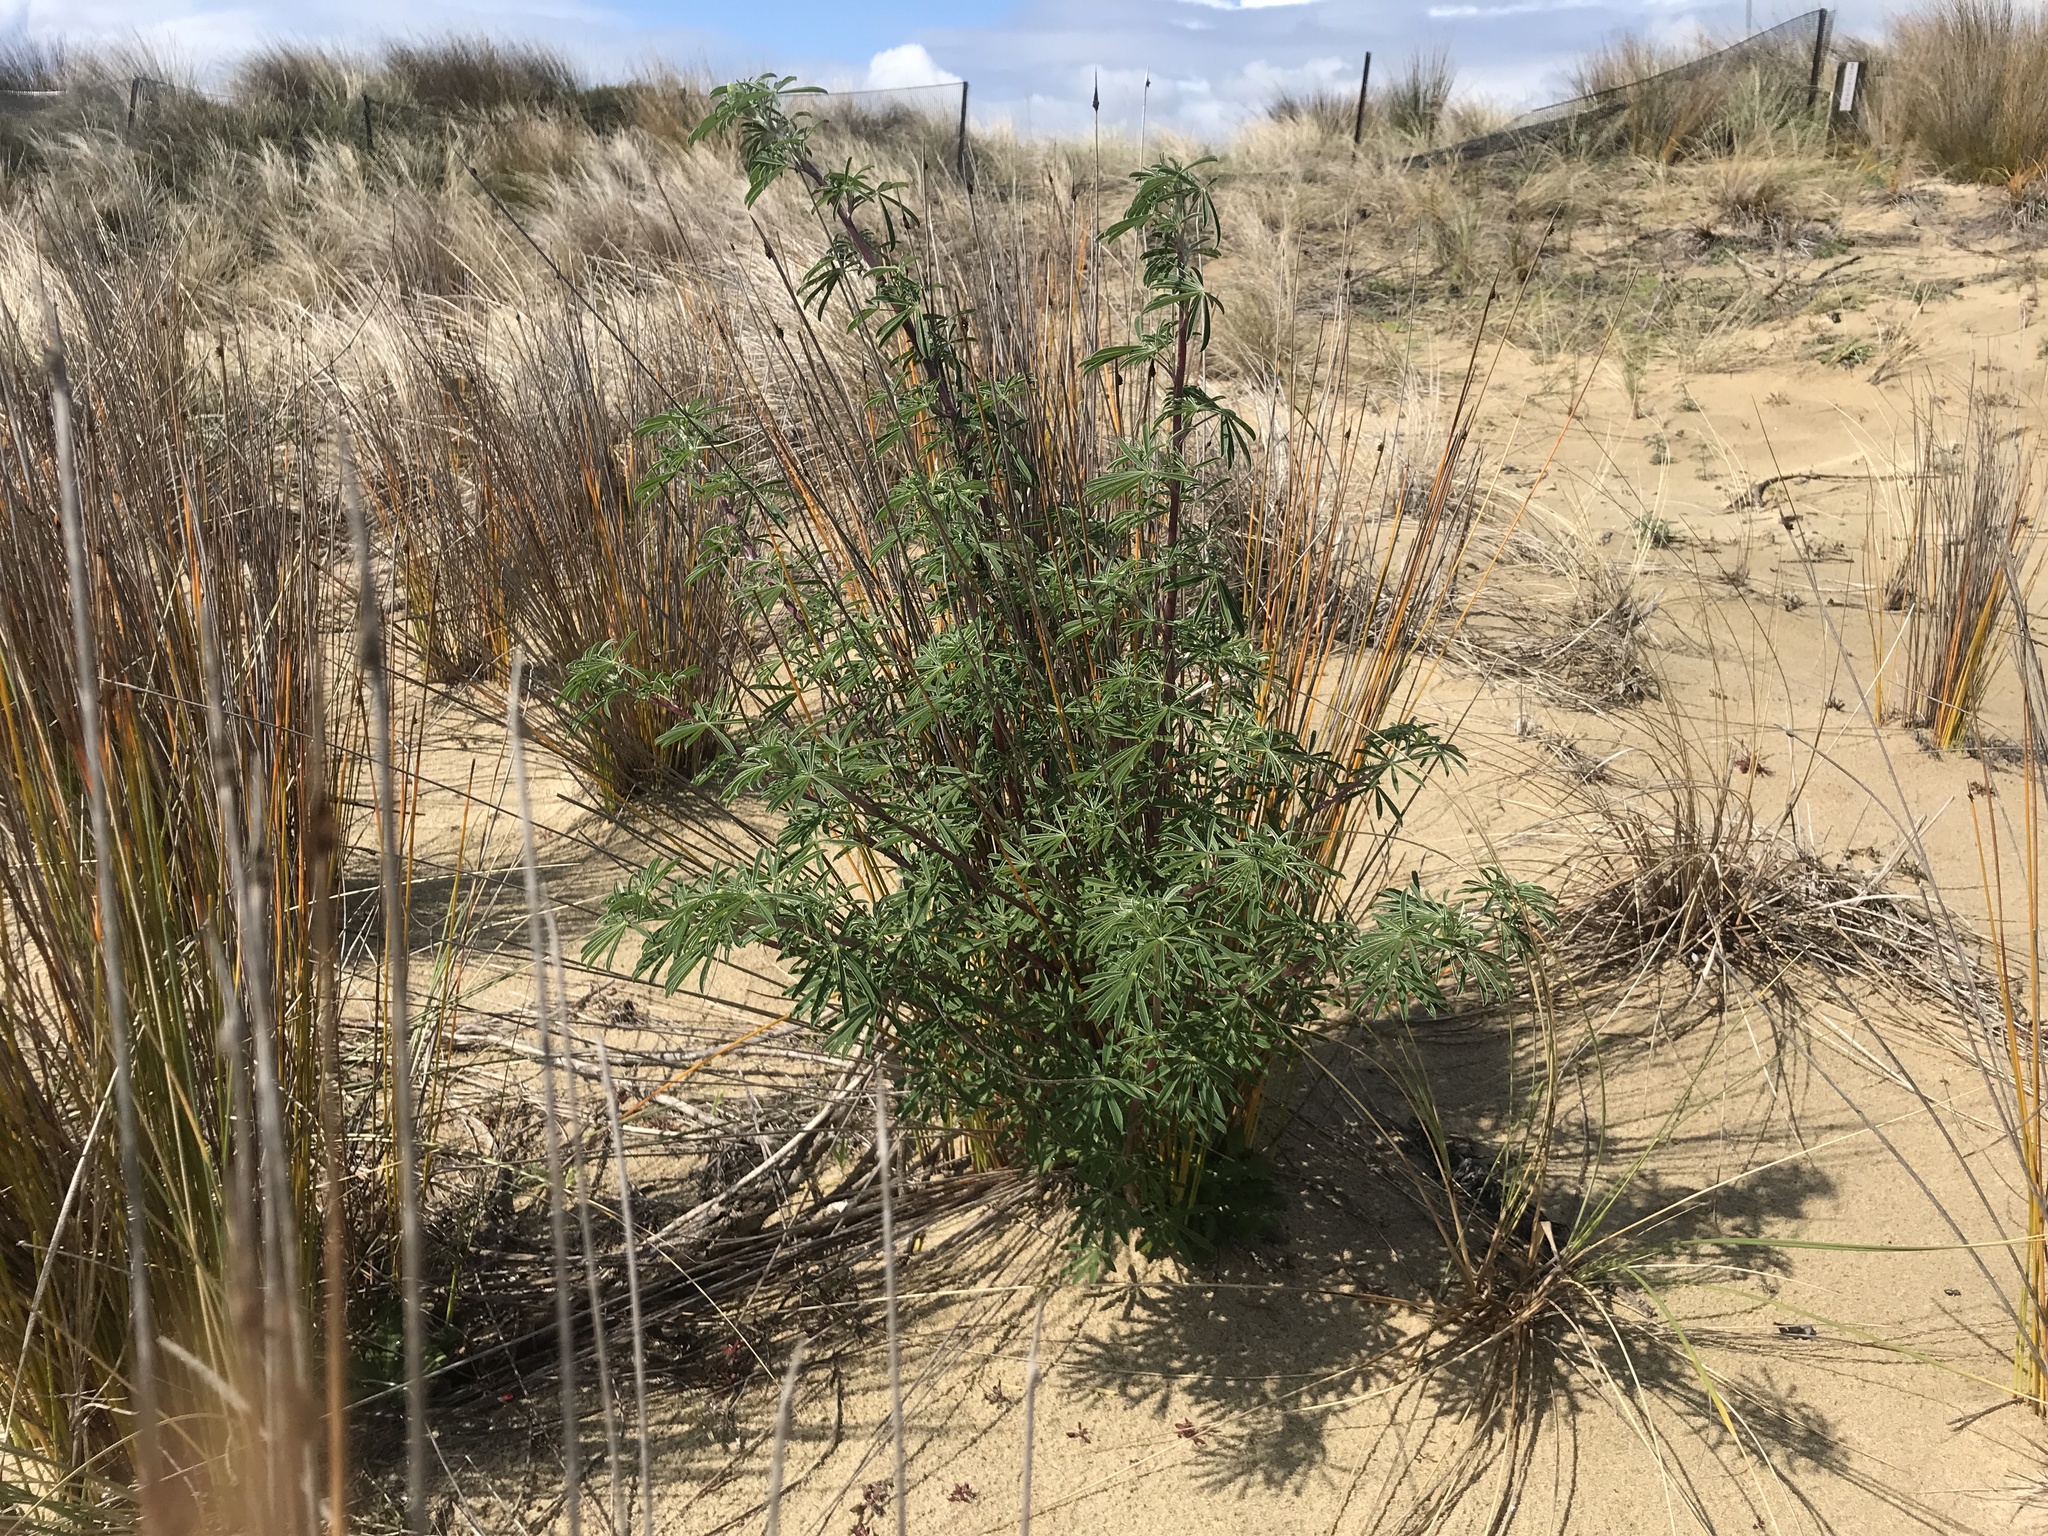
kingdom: Plantae
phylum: Tracheophyta
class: Magnoliopsida
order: Fabales
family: Fabaceae
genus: Lupinus
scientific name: Lupinus arboreus
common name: Yellow bush lupine
